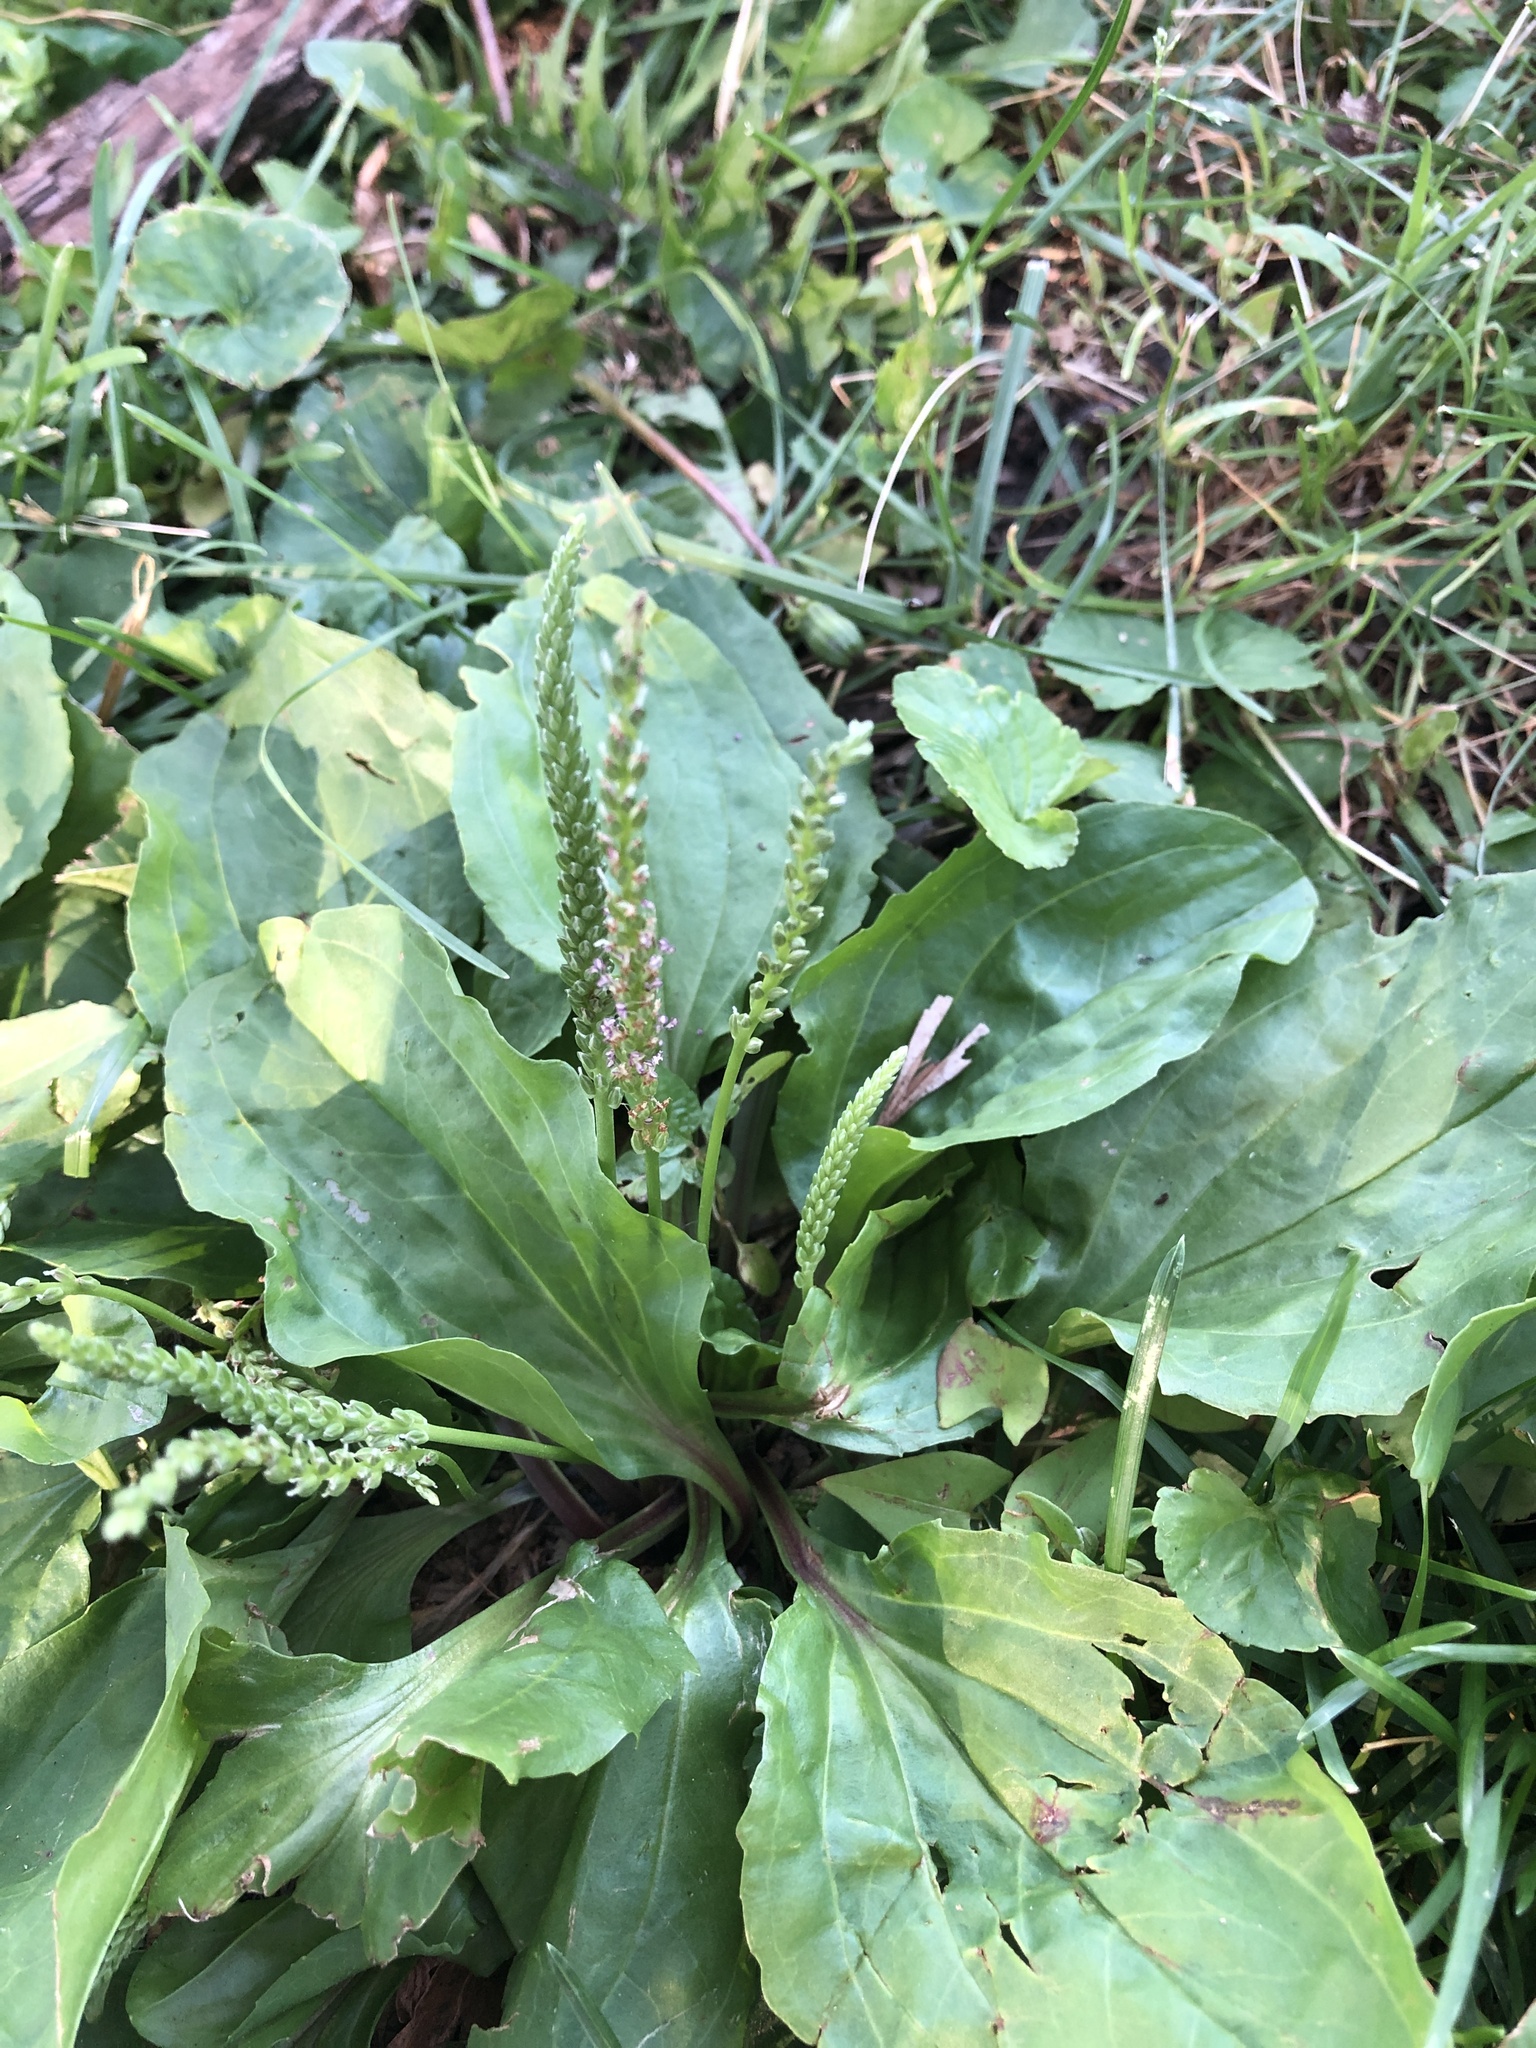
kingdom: Plantae
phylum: Tracheophyta
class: Magnoliopsida
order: Lamiales
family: Plantaginaceae
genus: Plantago
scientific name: Plantago rugelii
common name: American plantain
